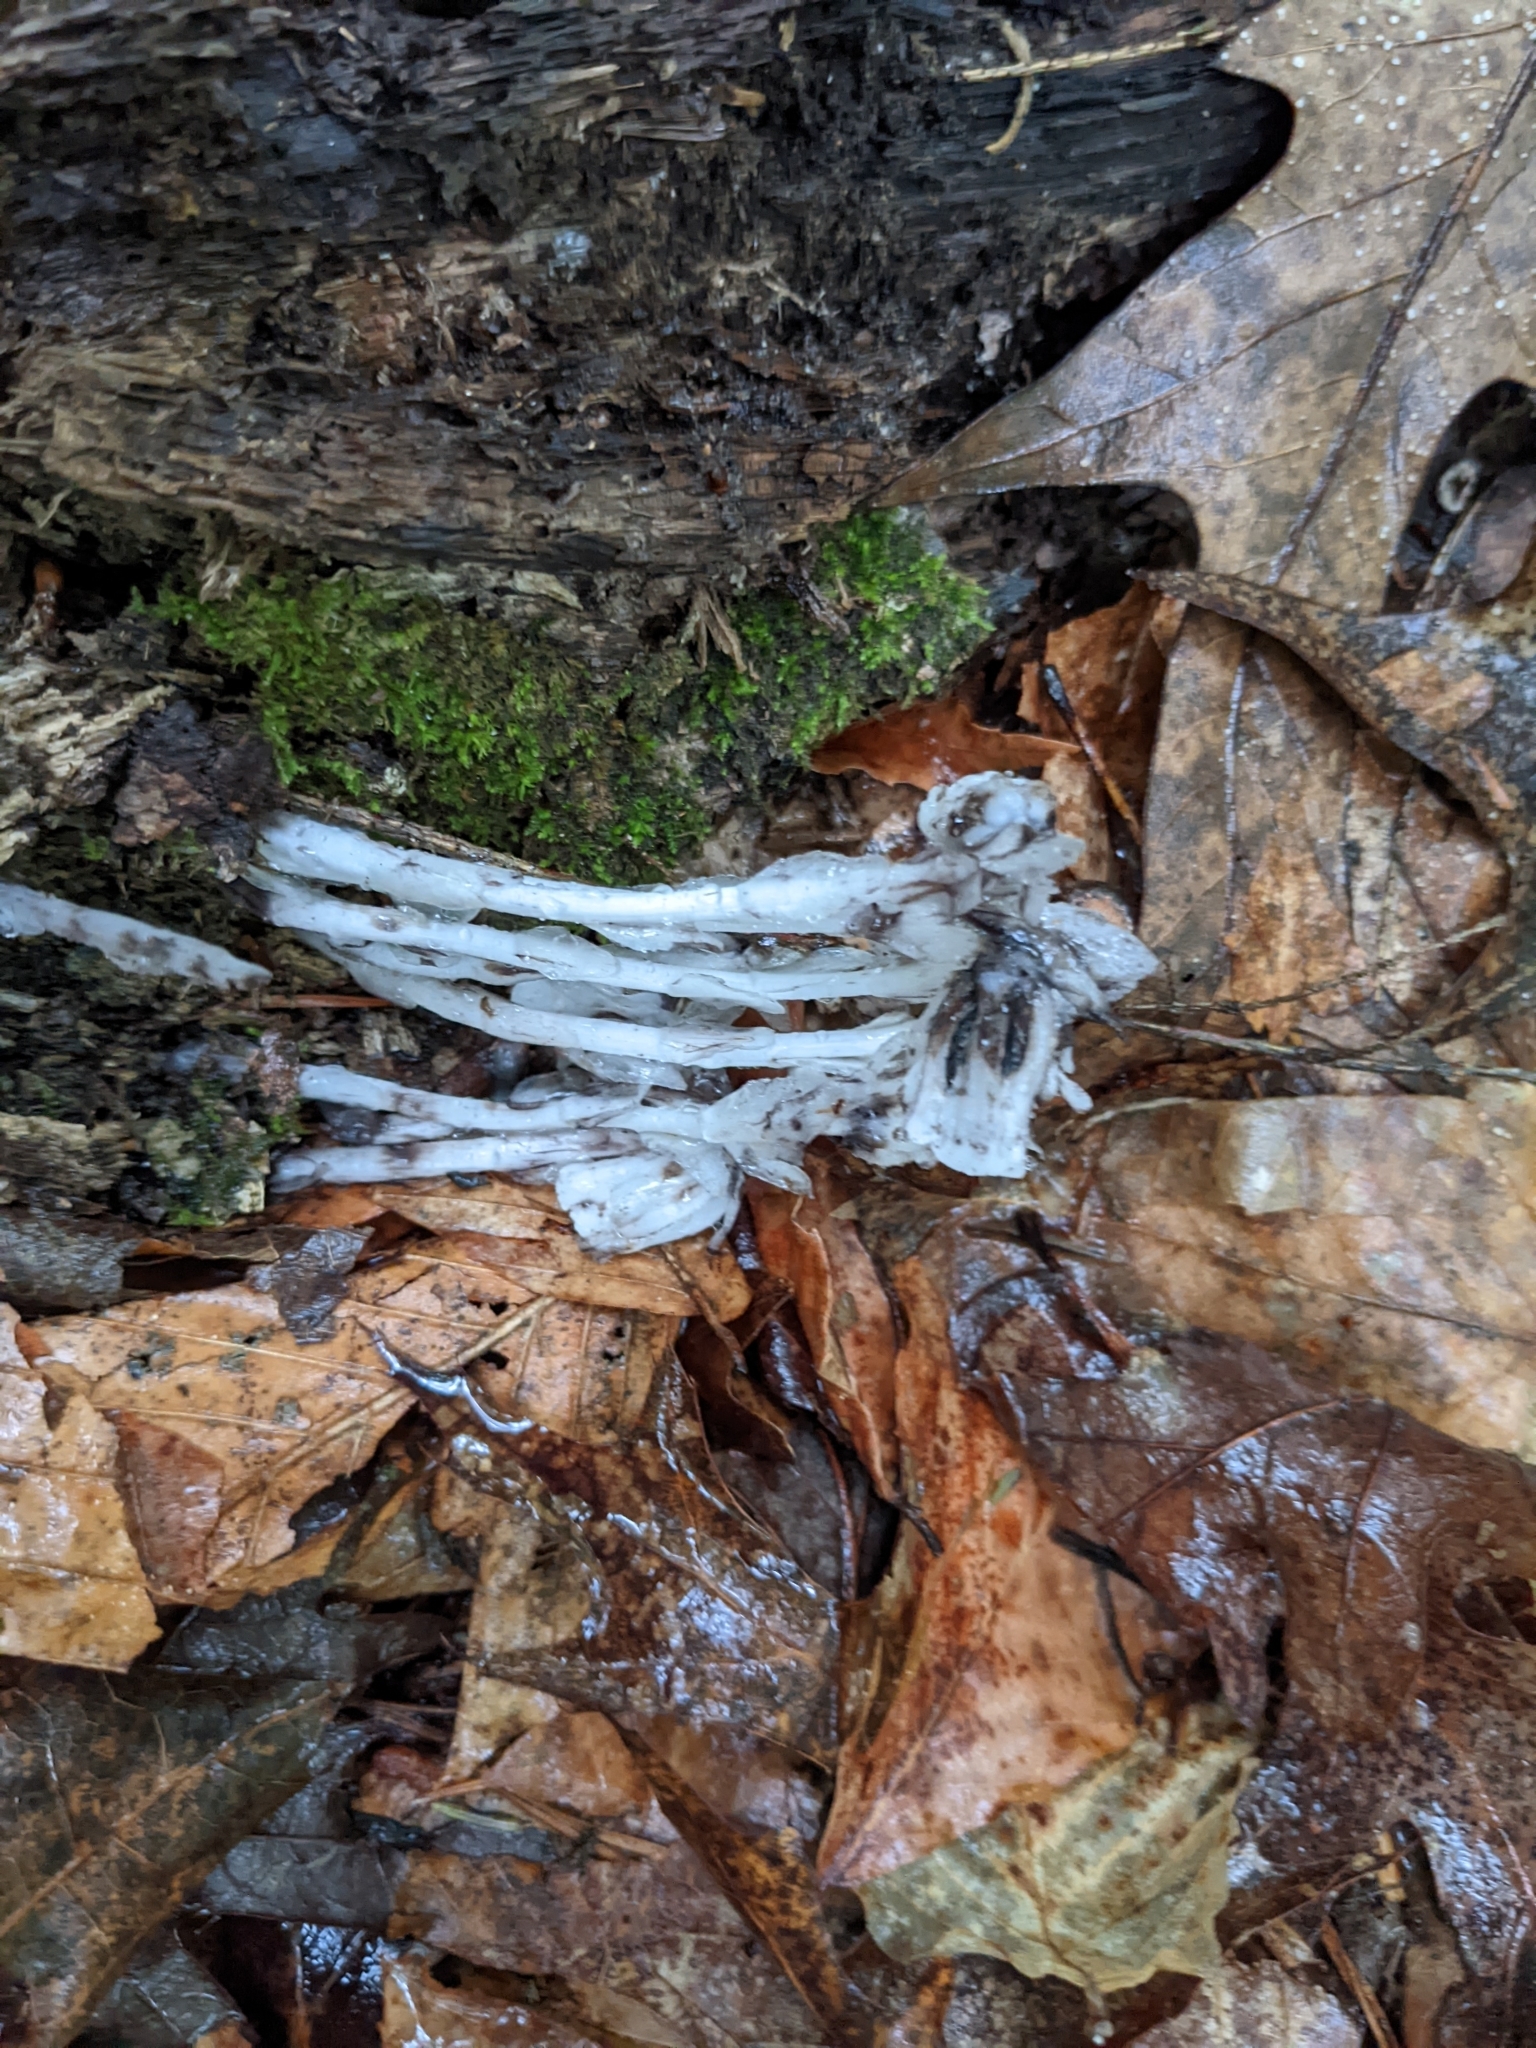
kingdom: Plantae
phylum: Tracheophyta
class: Magnoliopsida
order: Ericales
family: Ericaceae
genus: Monotropa
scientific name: Monotropa uniflora
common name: Convulsion root
